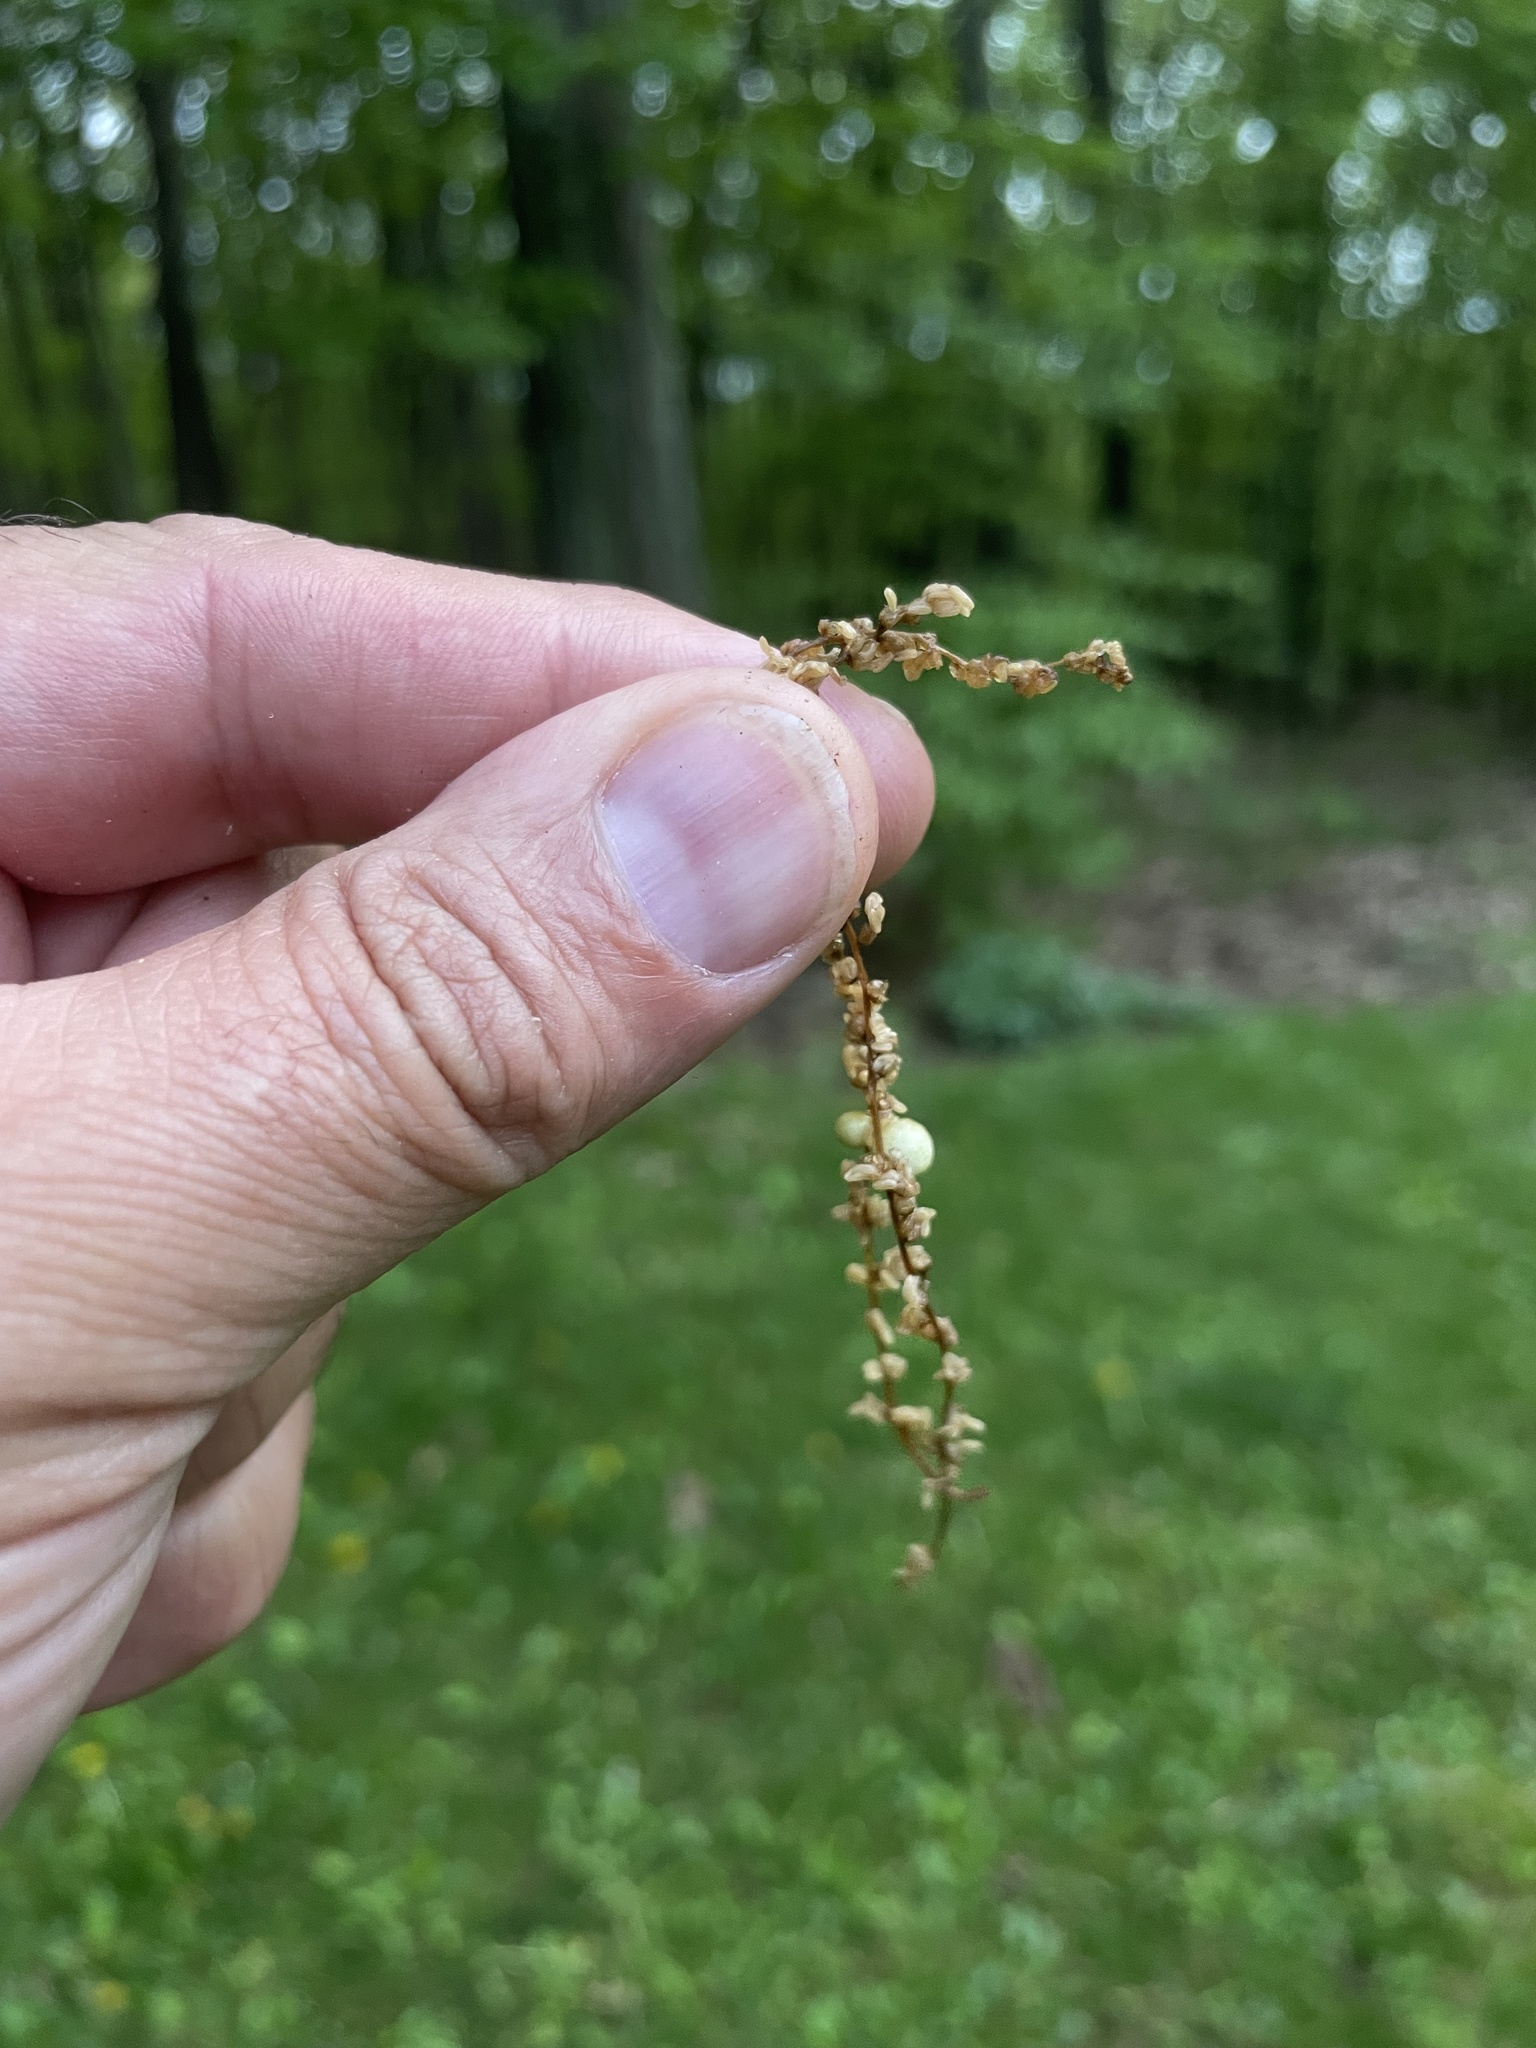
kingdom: Animalia
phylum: Arthropoda
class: Insecta
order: Hymenoptera
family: Cynipidae
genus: Callirhytis
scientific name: Callirhytis
